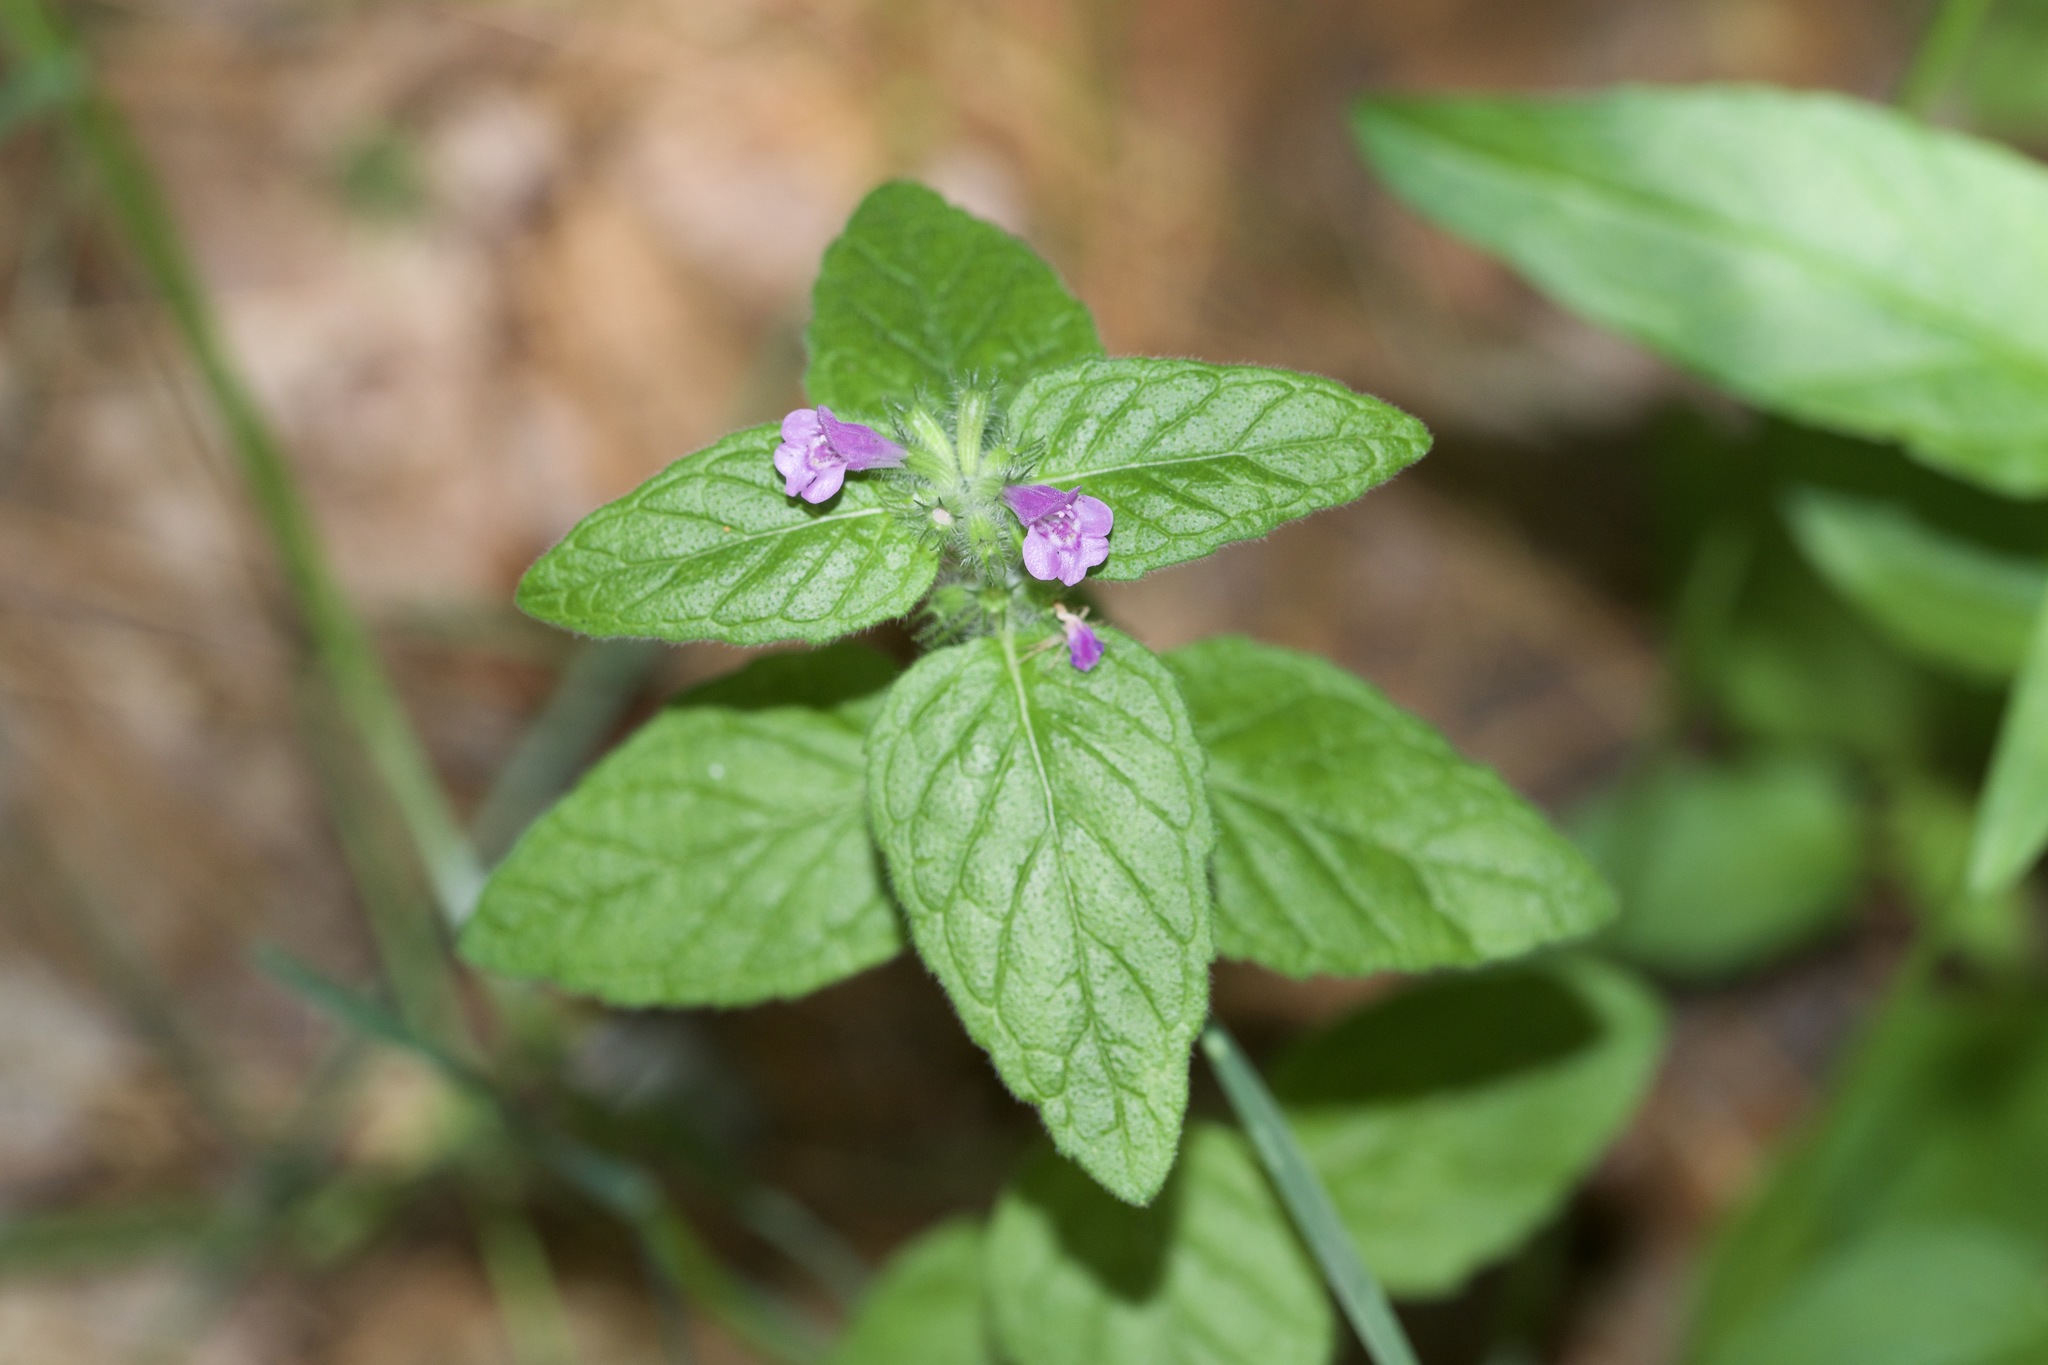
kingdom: Plantae
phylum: Tracheophyta
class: Magnoliopsida
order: Lamiales
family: Lamiaceae
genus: Clinopodium
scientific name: Clinopodium vulgare
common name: Wild basil
